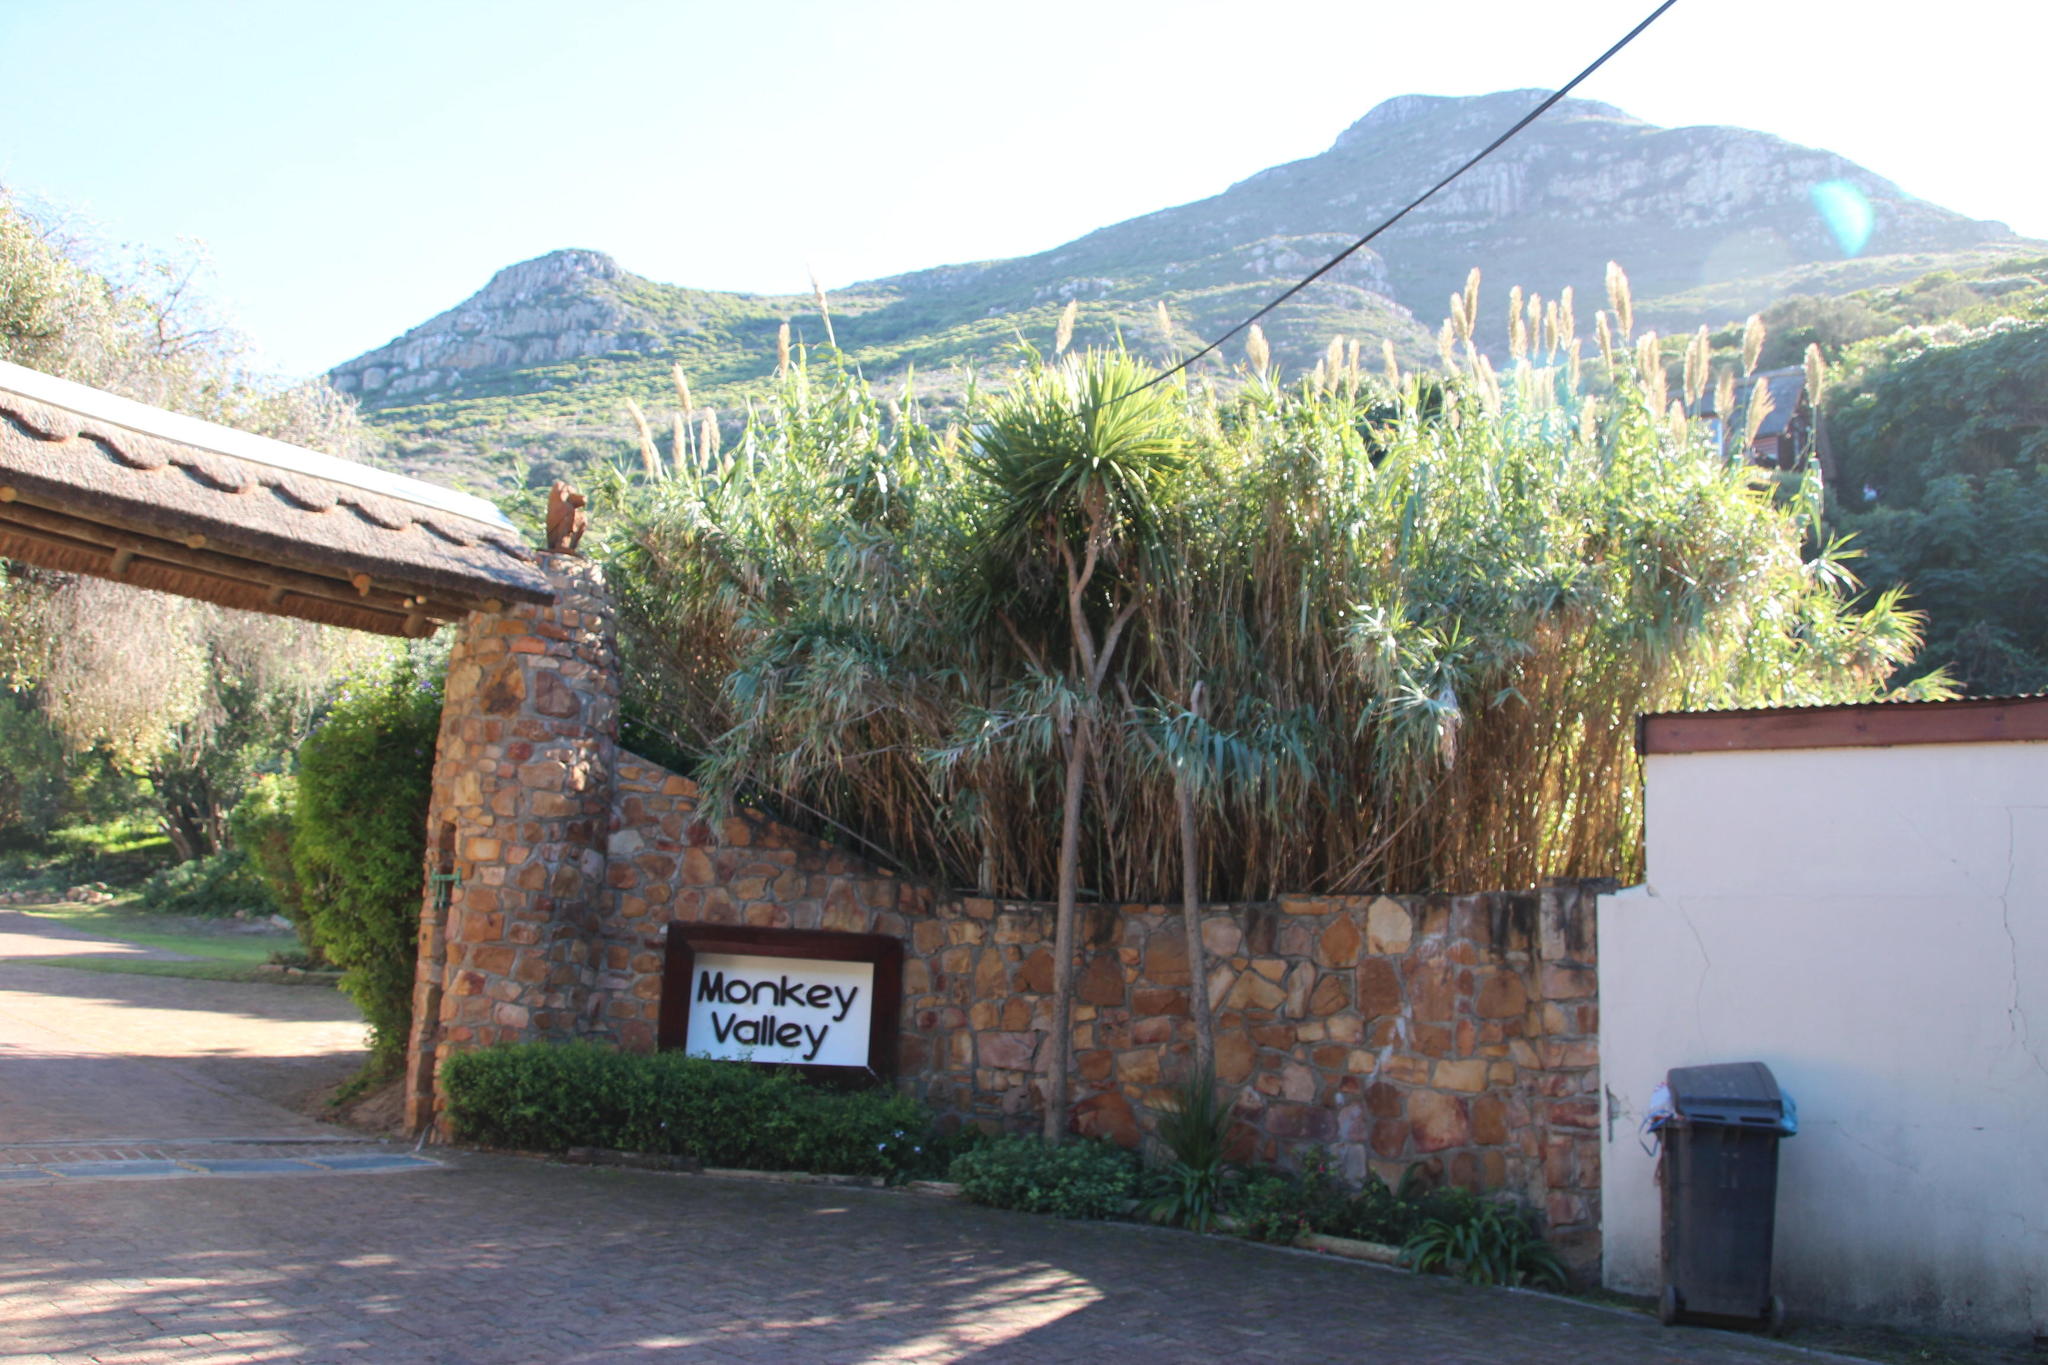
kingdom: Plantae
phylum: Tracheophyta
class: Liliopsida
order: Poales
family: Poaceae
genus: Arundo
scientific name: Arundo donax
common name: Giant reed
